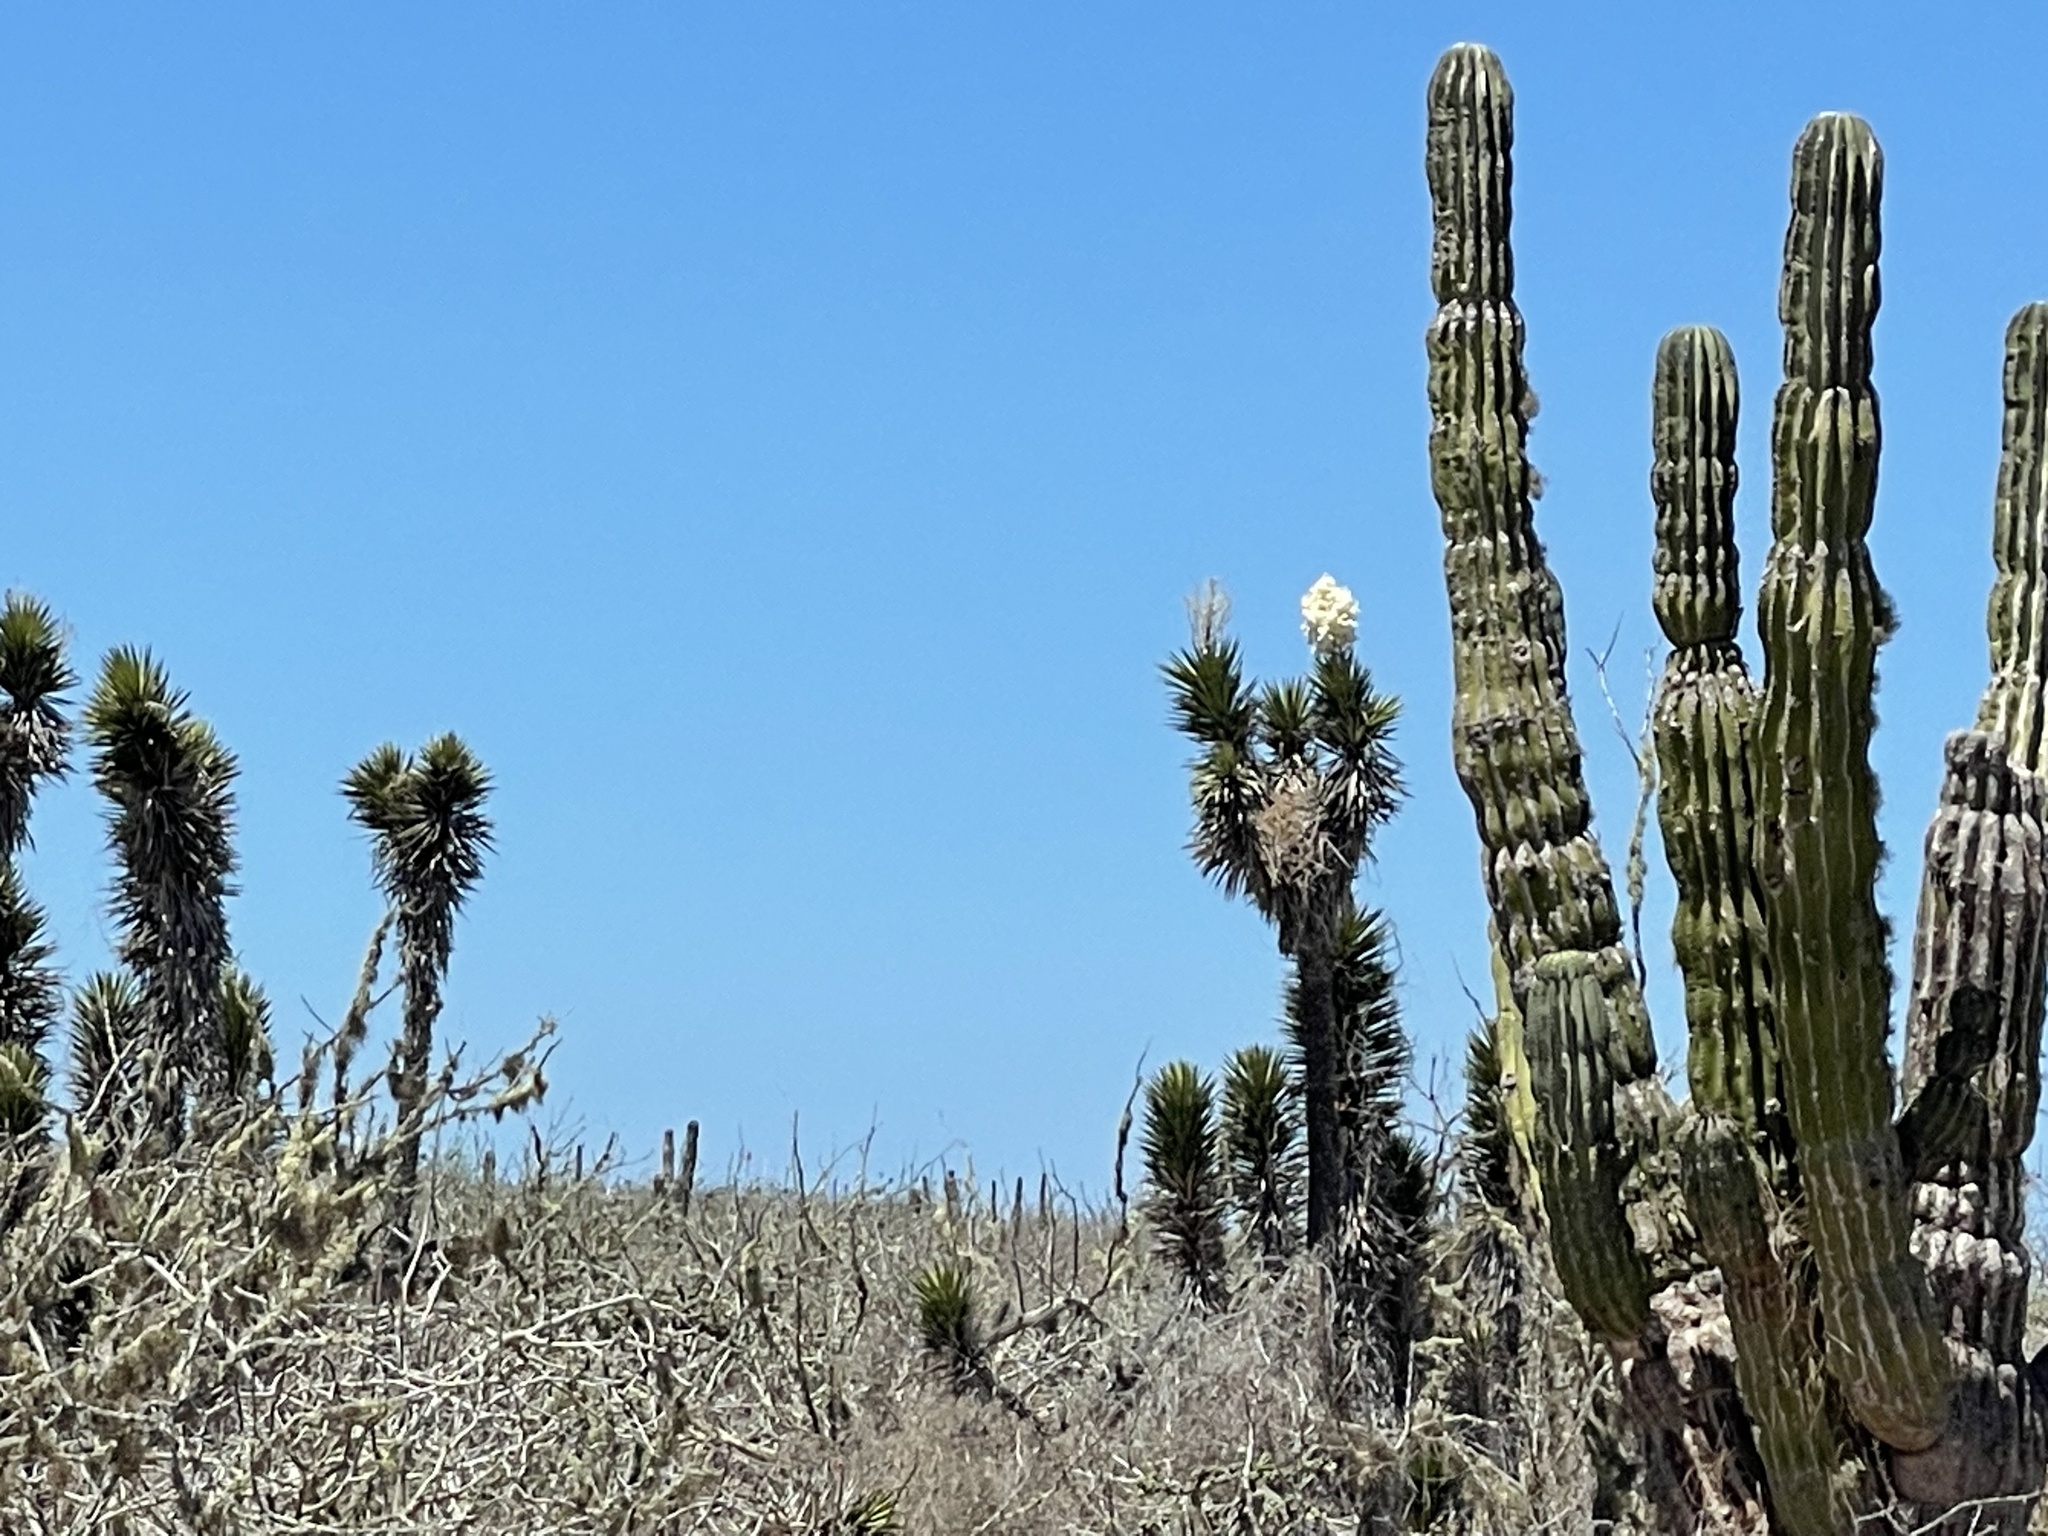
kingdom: Plantae
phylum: Tracheophyta
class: Liliopsida
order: Asparagales
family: Asparagaceae
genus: Yucca
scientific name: Yucca valida
